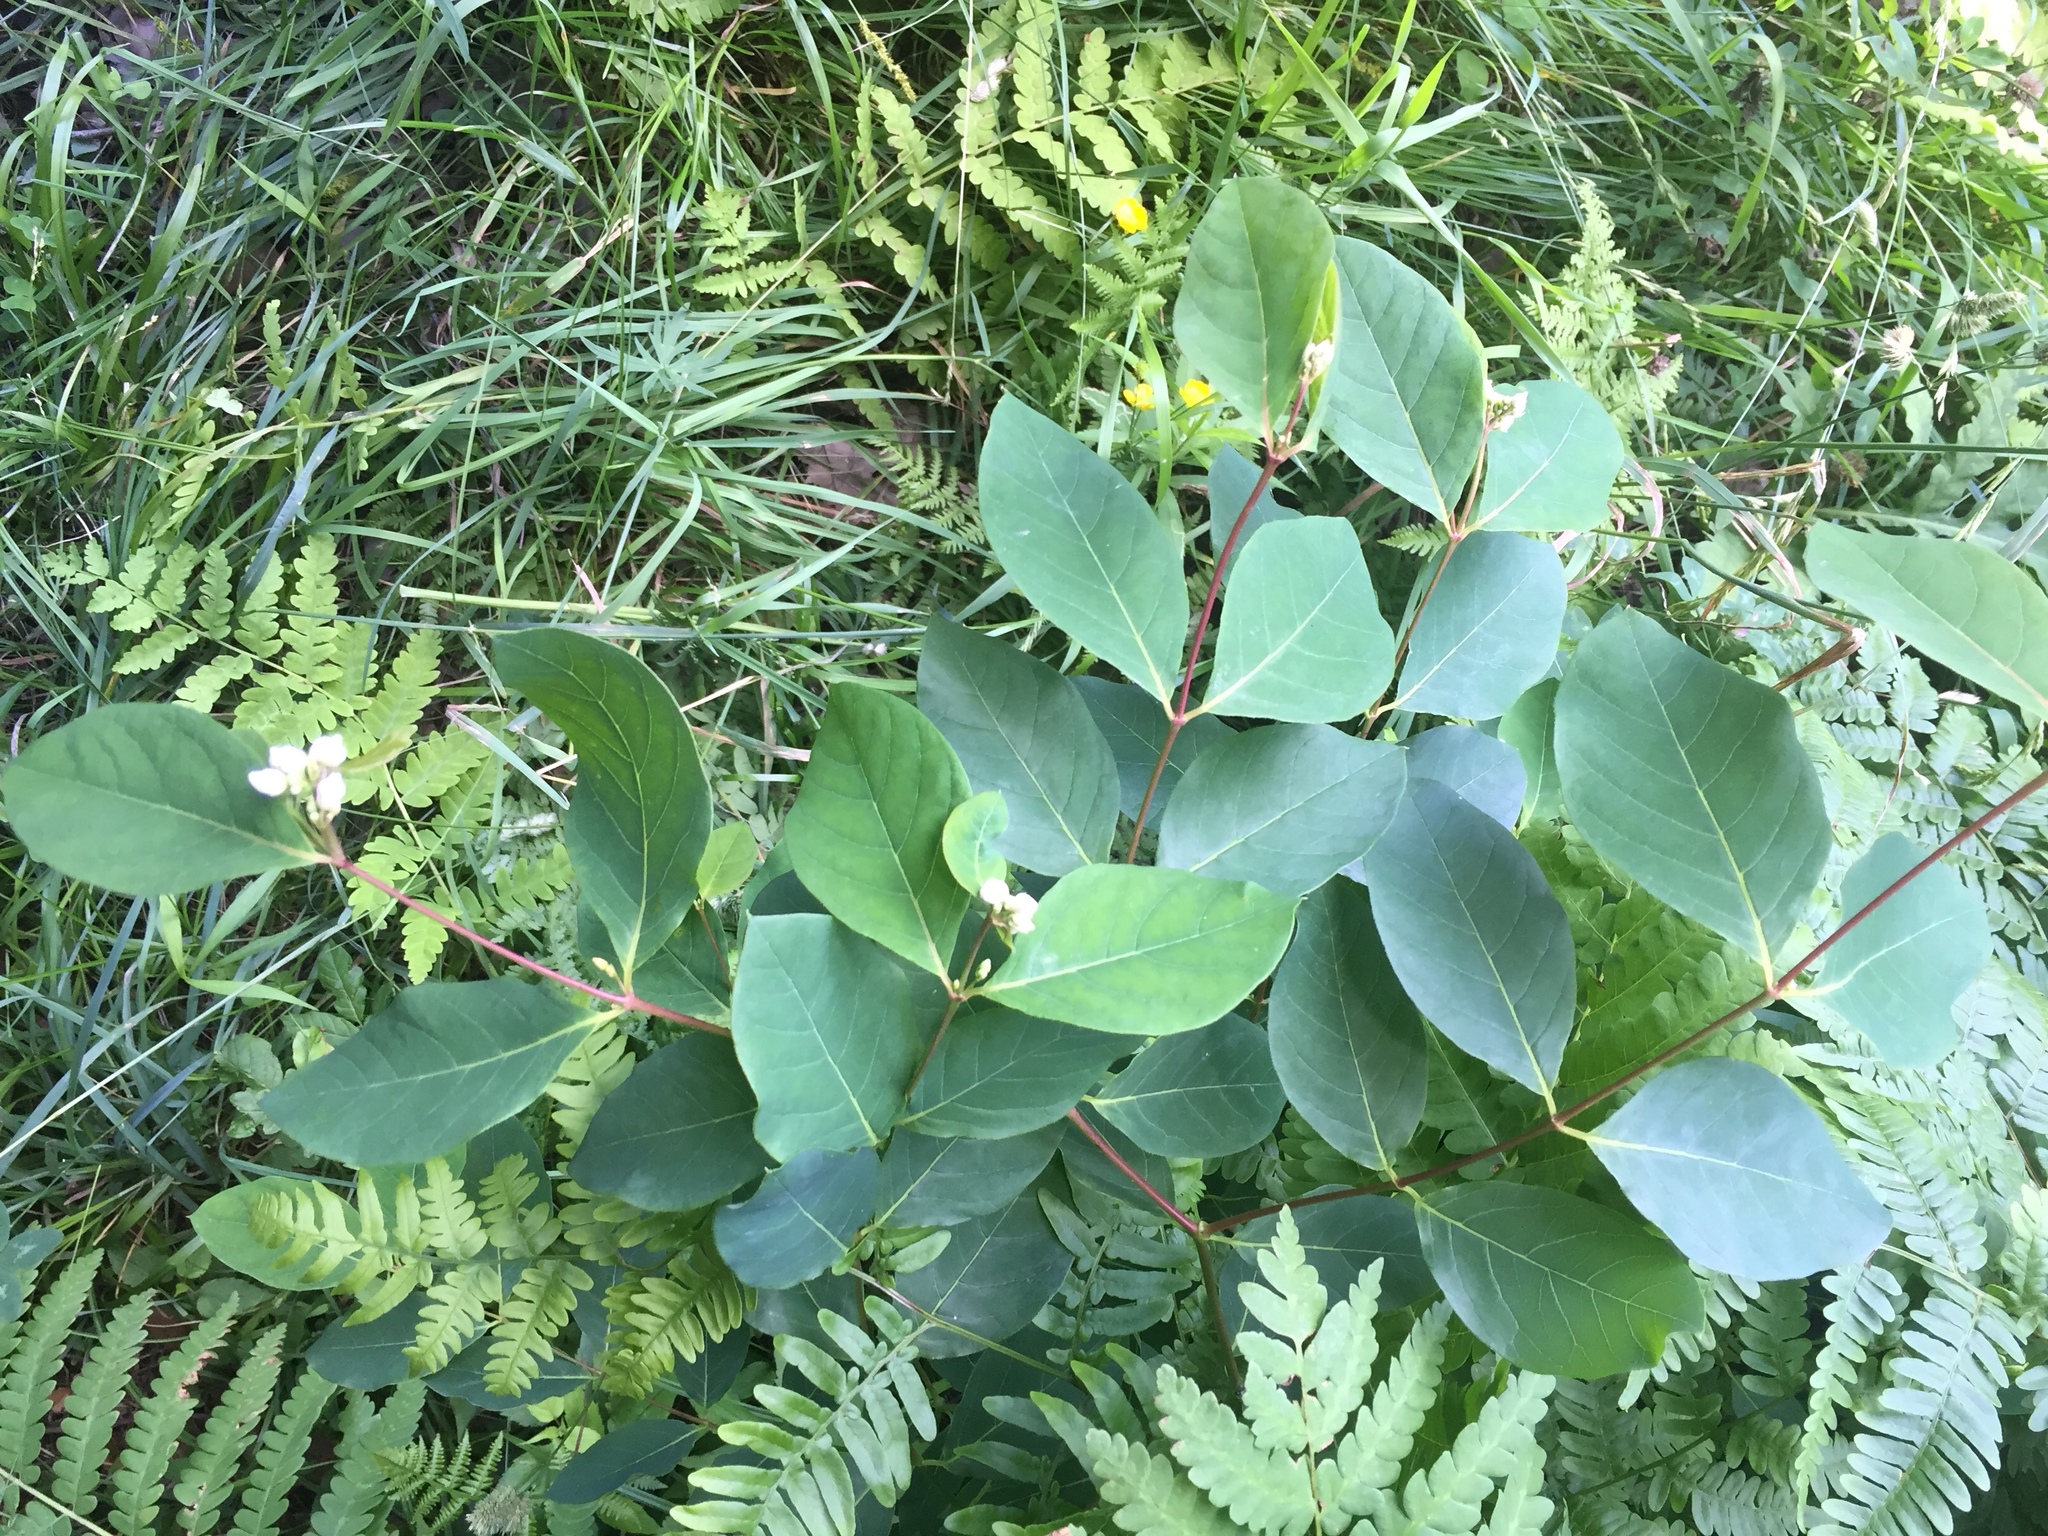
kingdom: Plantae
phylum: Tracheophyta
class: Magnoliopsida
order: Gentianales
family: Apocynaceae
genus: Apocynum
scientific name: Apocynum androsaemifolium
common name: Spreading dogbane
